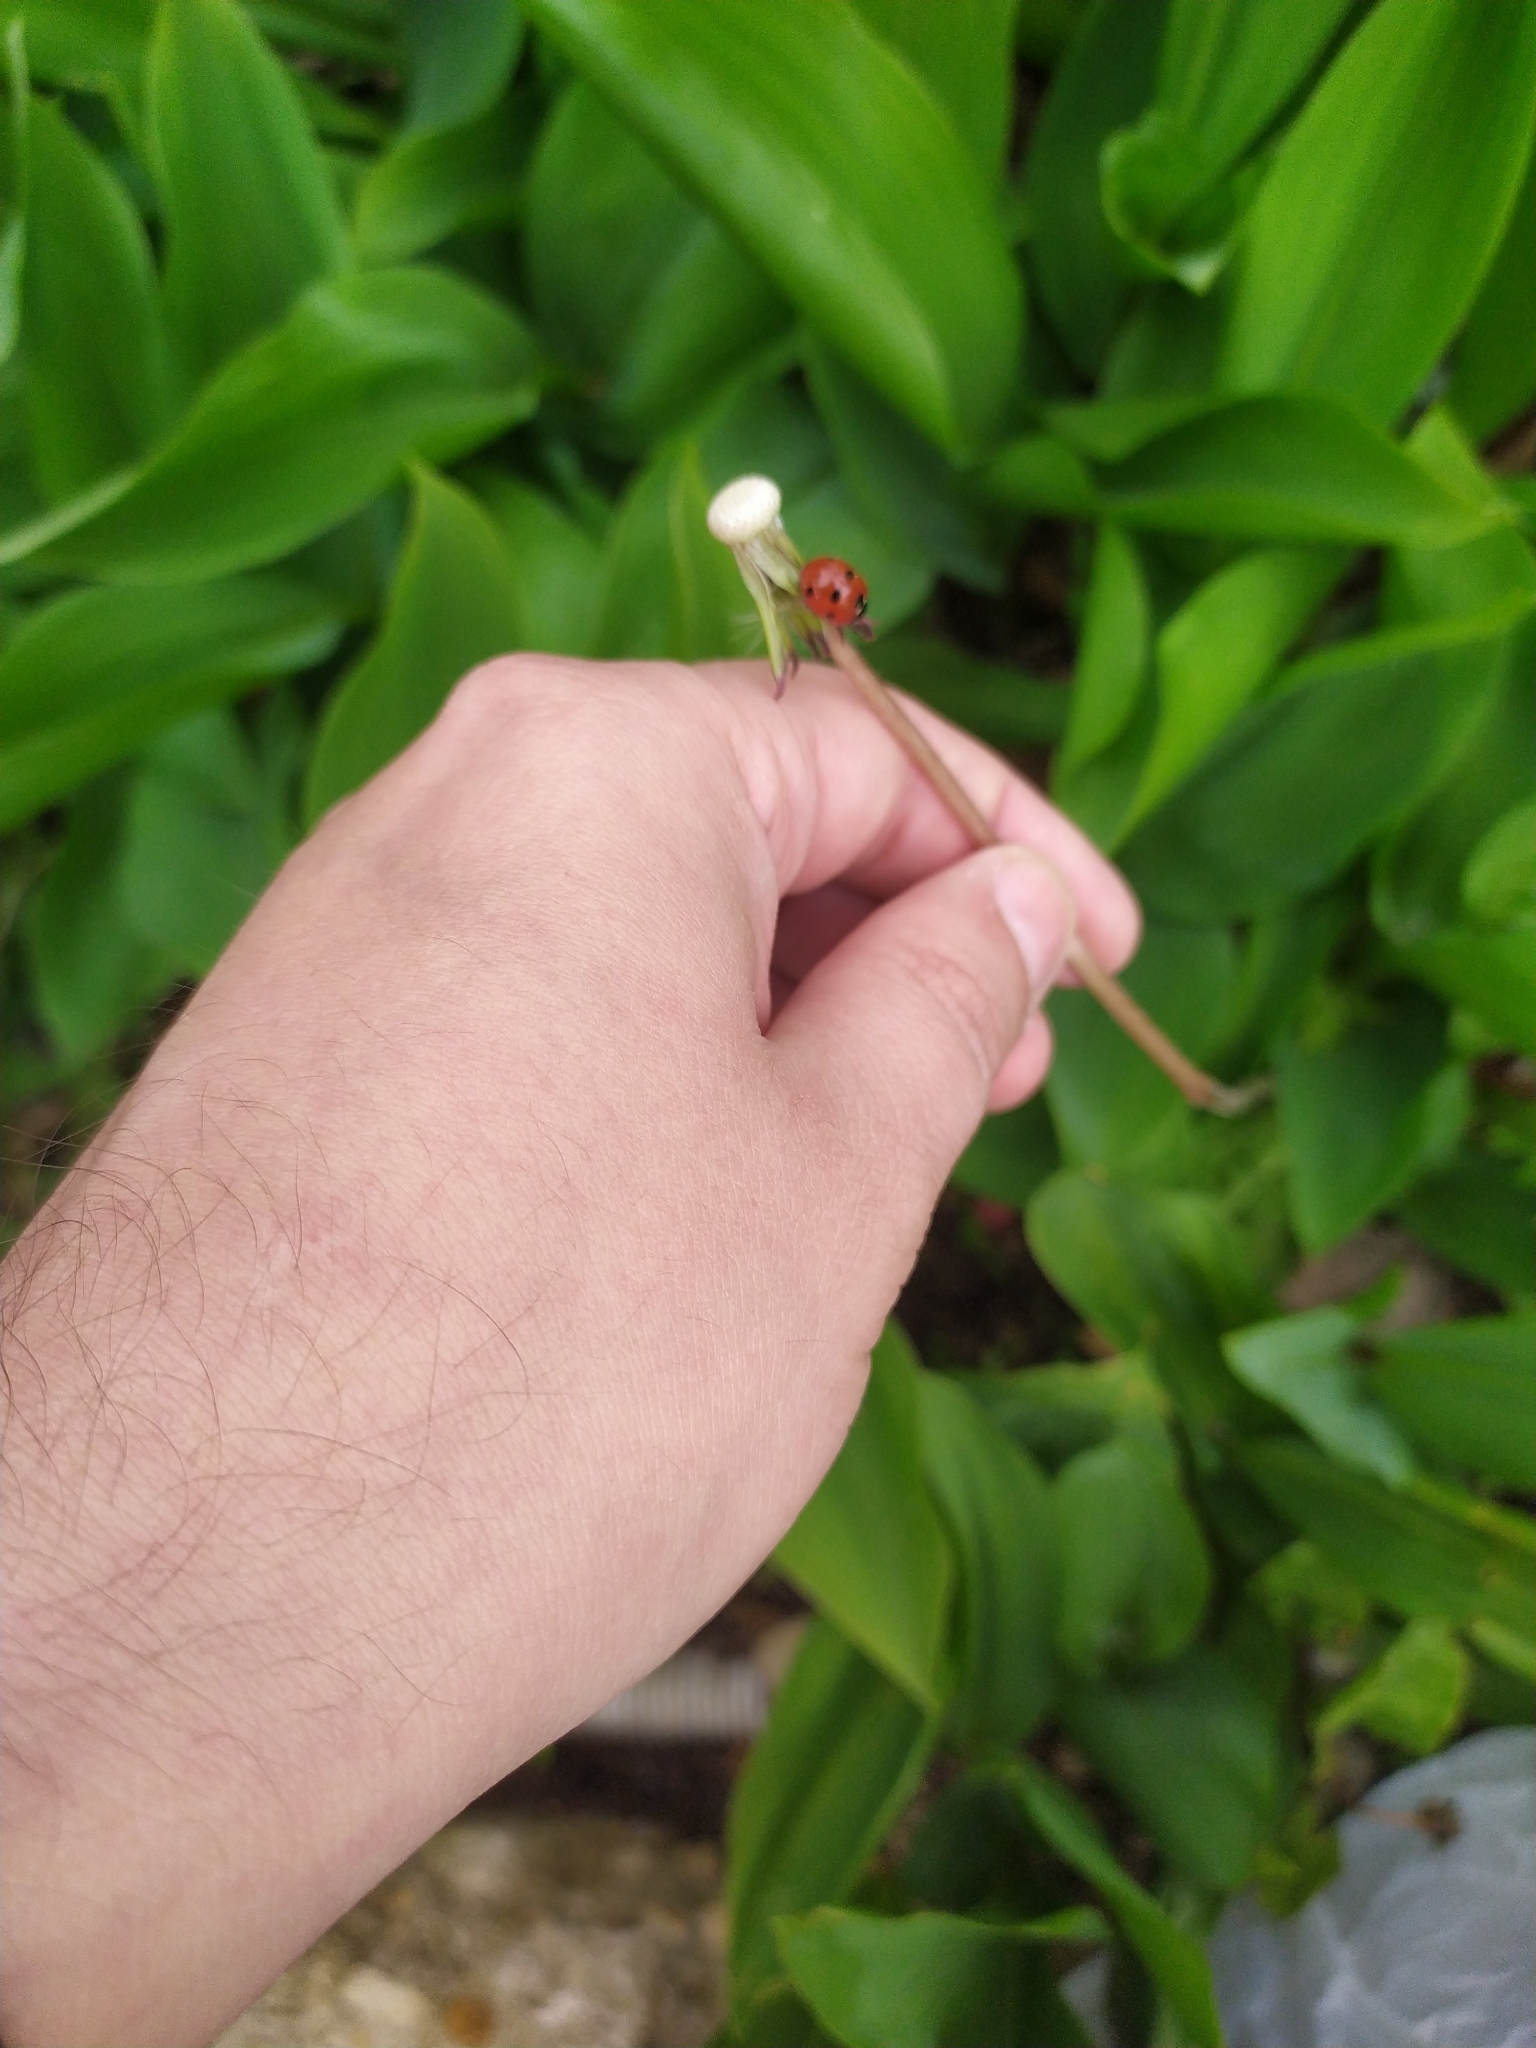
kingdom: Animalia
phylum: Arthropoda
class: Insecta
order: Coleoptera
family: Coccinellidae
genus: Coccinella
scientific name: Coccinella septempunctata
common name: Sevenspotted lady beetle
